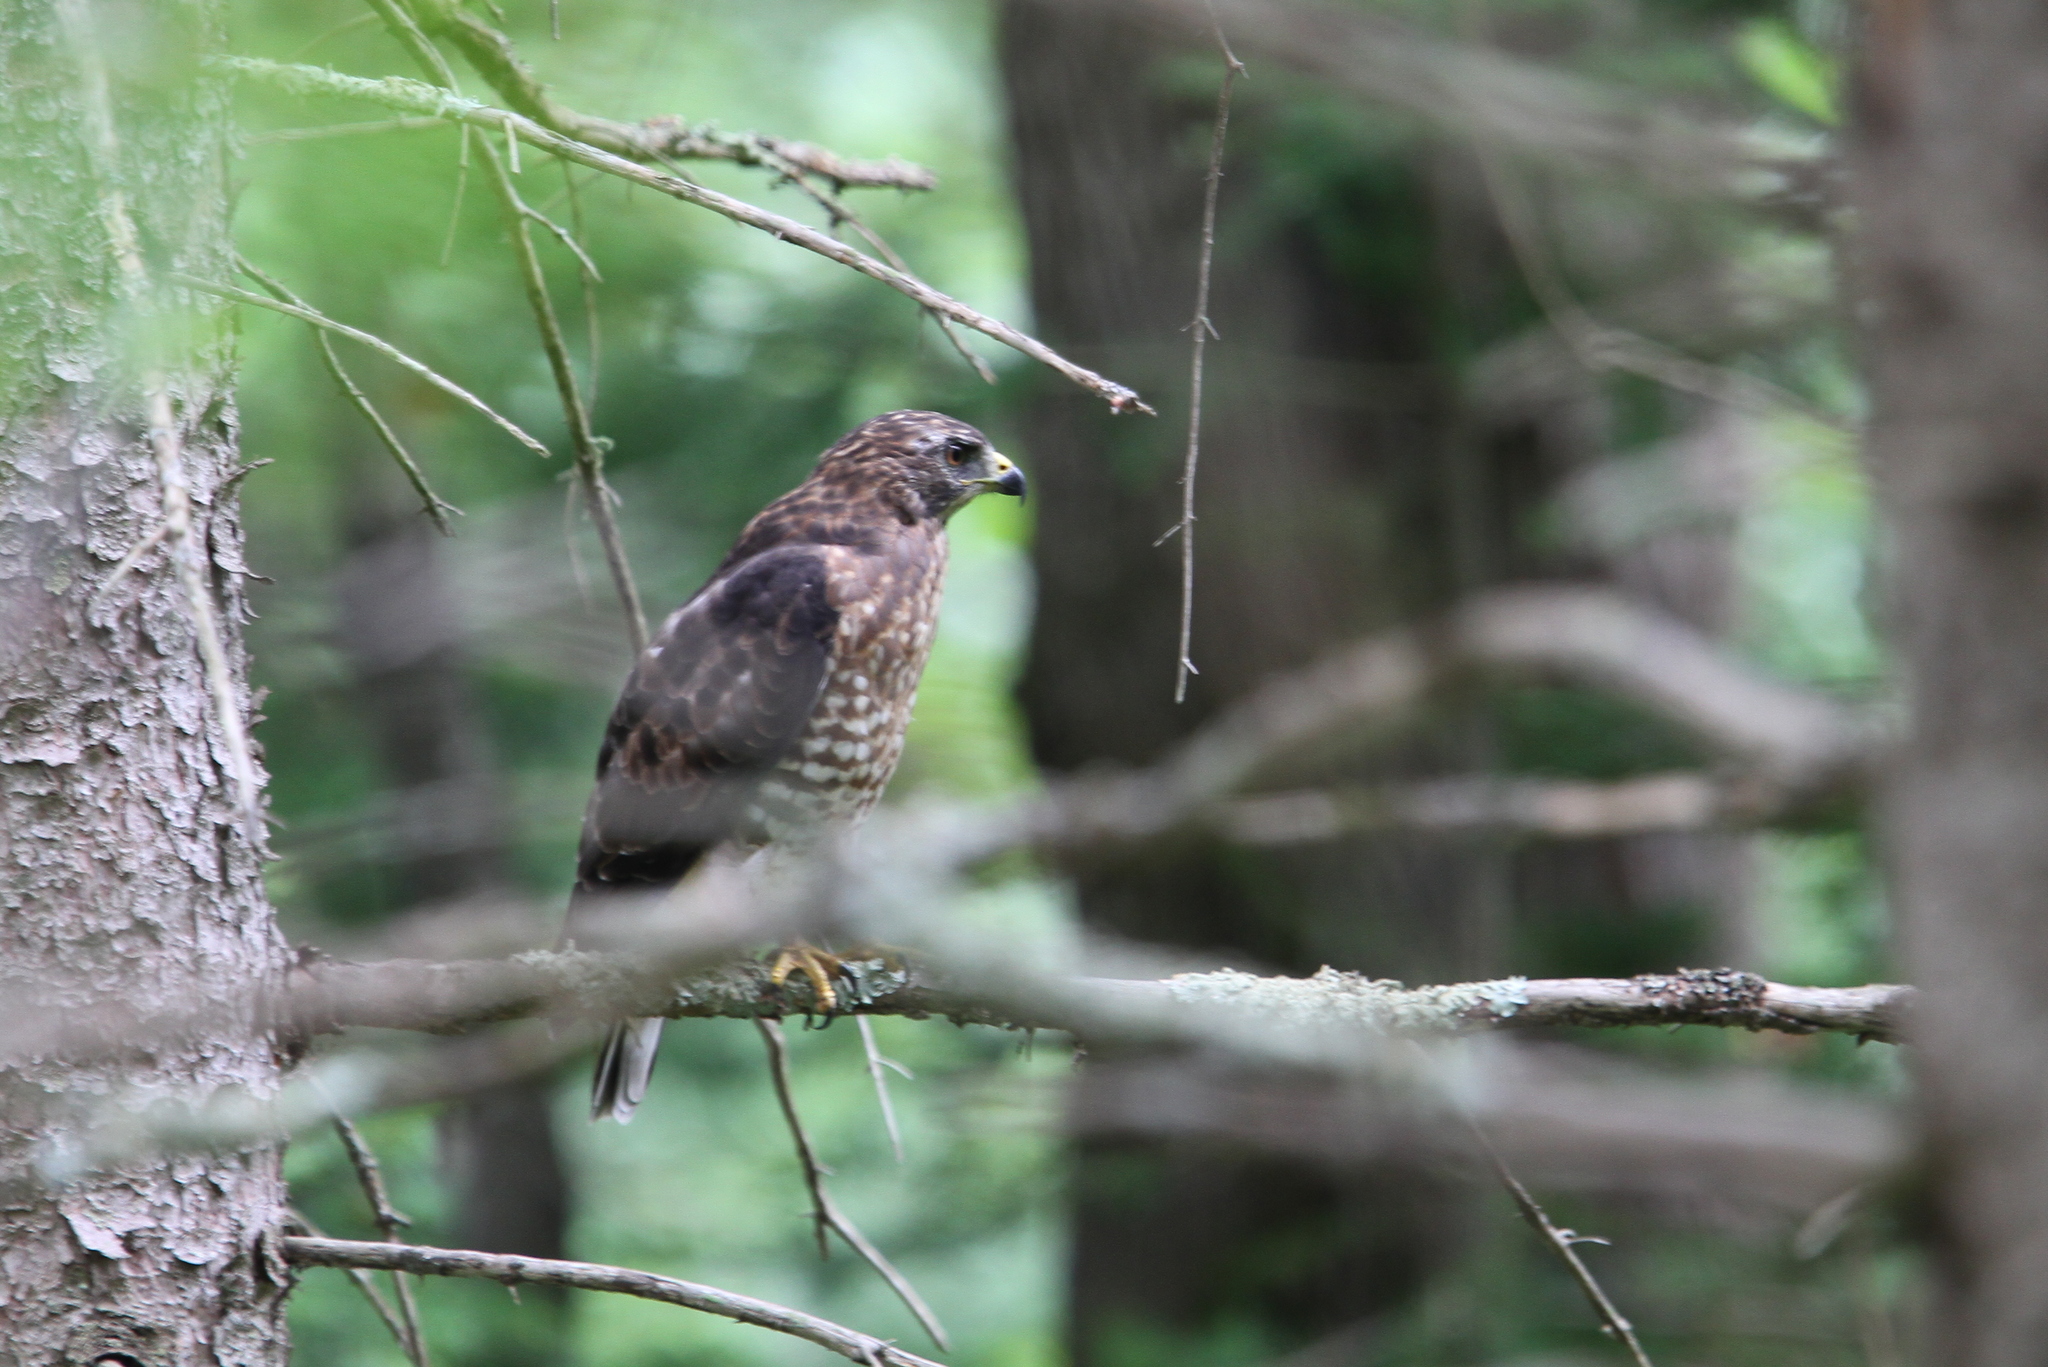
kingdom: Animalia
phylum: Chordata
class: Aves
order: Accipitriformes
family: Accipitridae
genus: Buteo
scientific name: Buteo platypterus
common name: Broad-winged hawk
